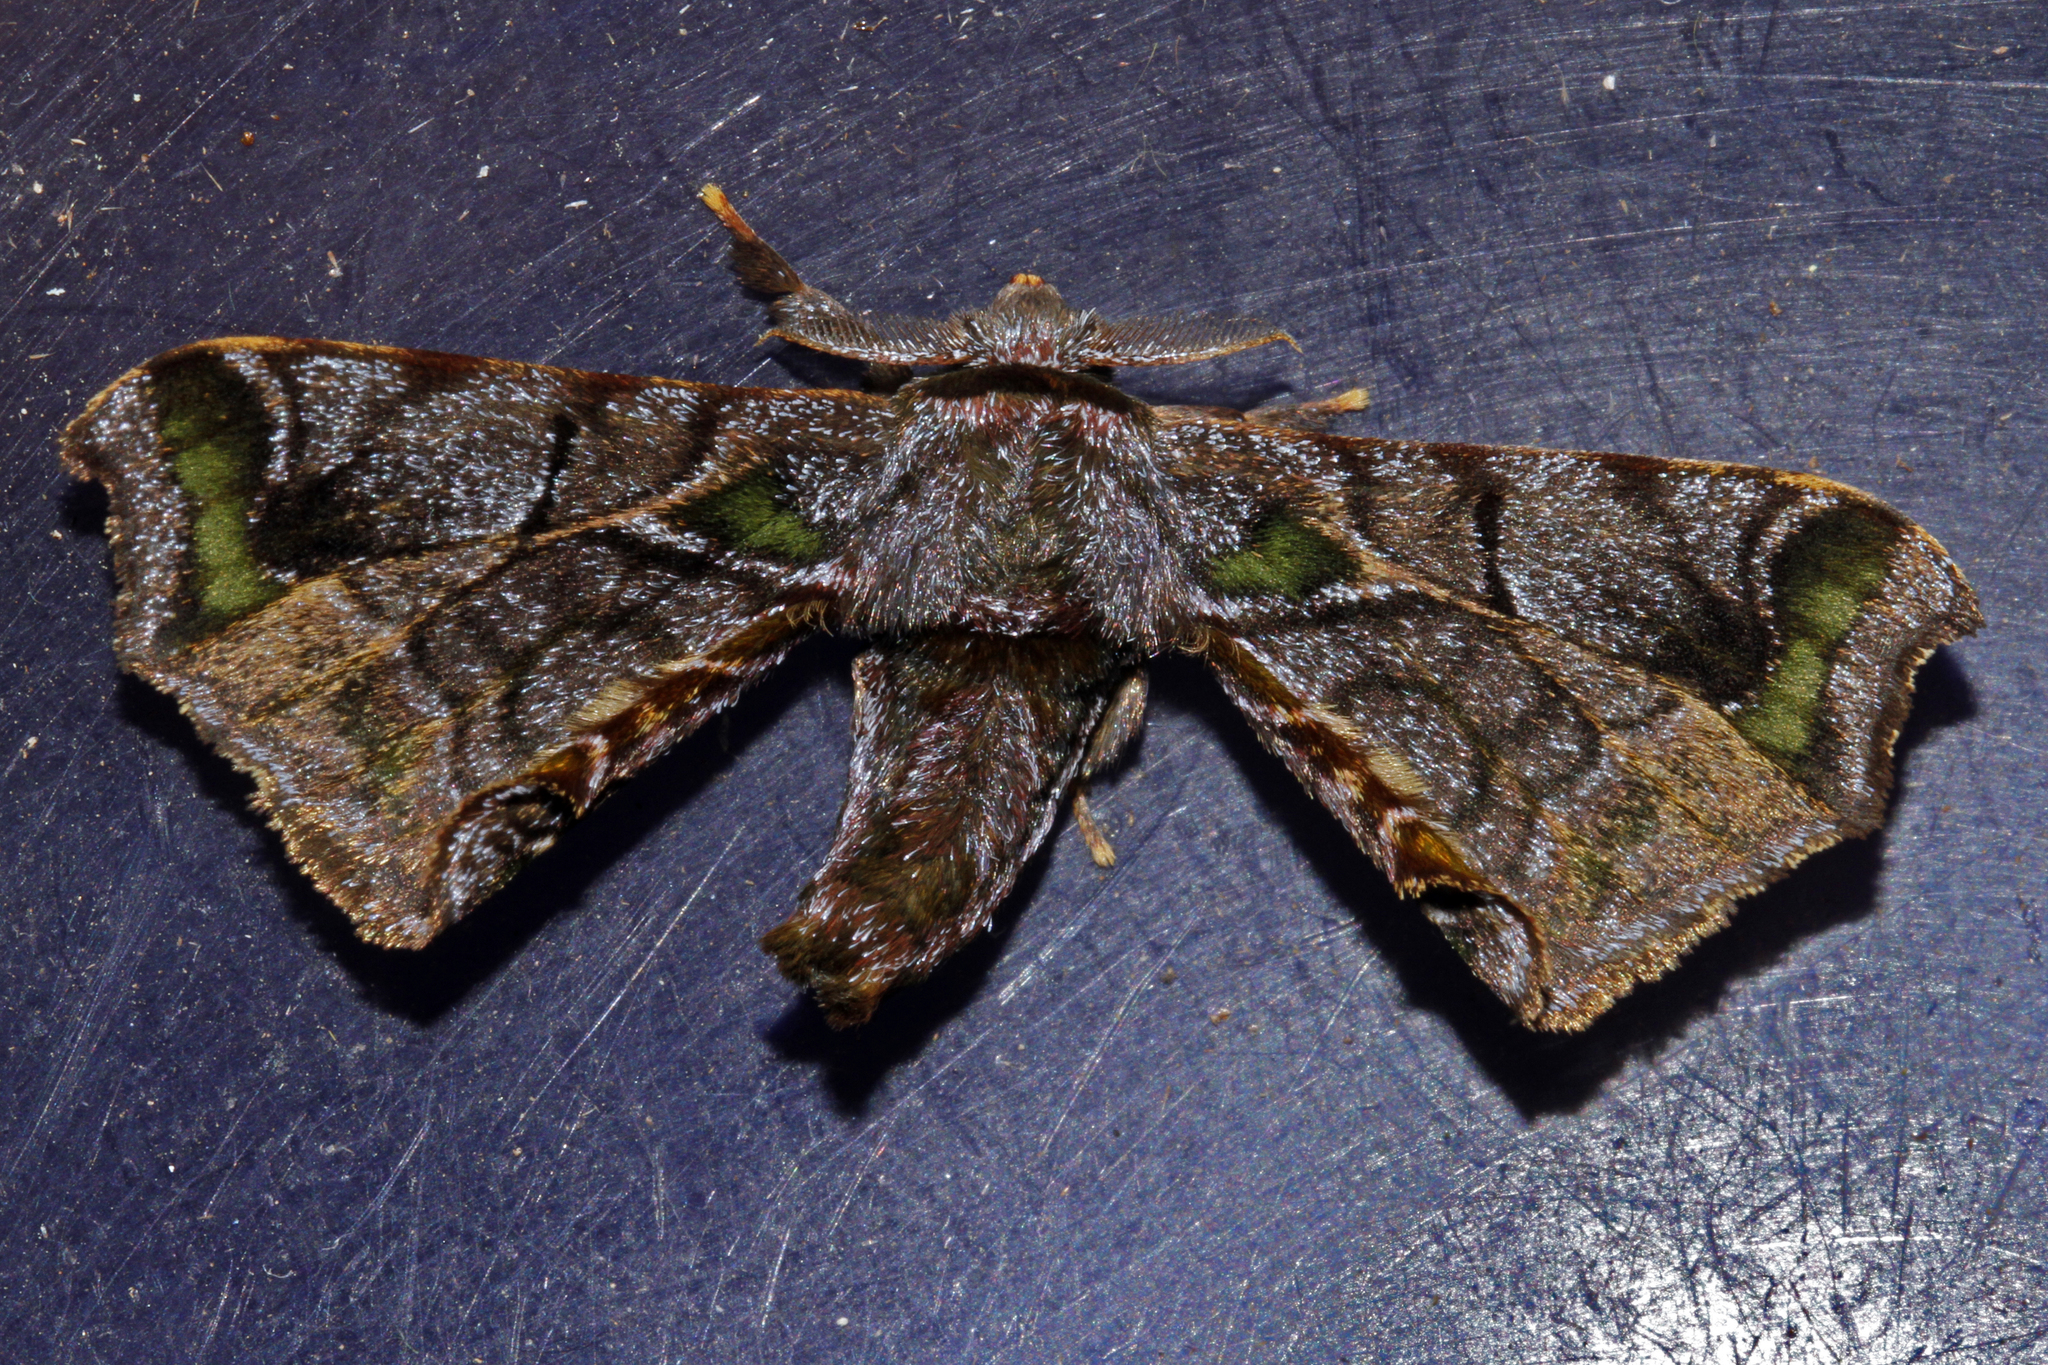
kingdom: Animalia
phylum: Arthropoda
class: Insecta
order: Lepidoptera
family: Bombycidae
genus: Quentalia
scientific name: Quentalia chromana
